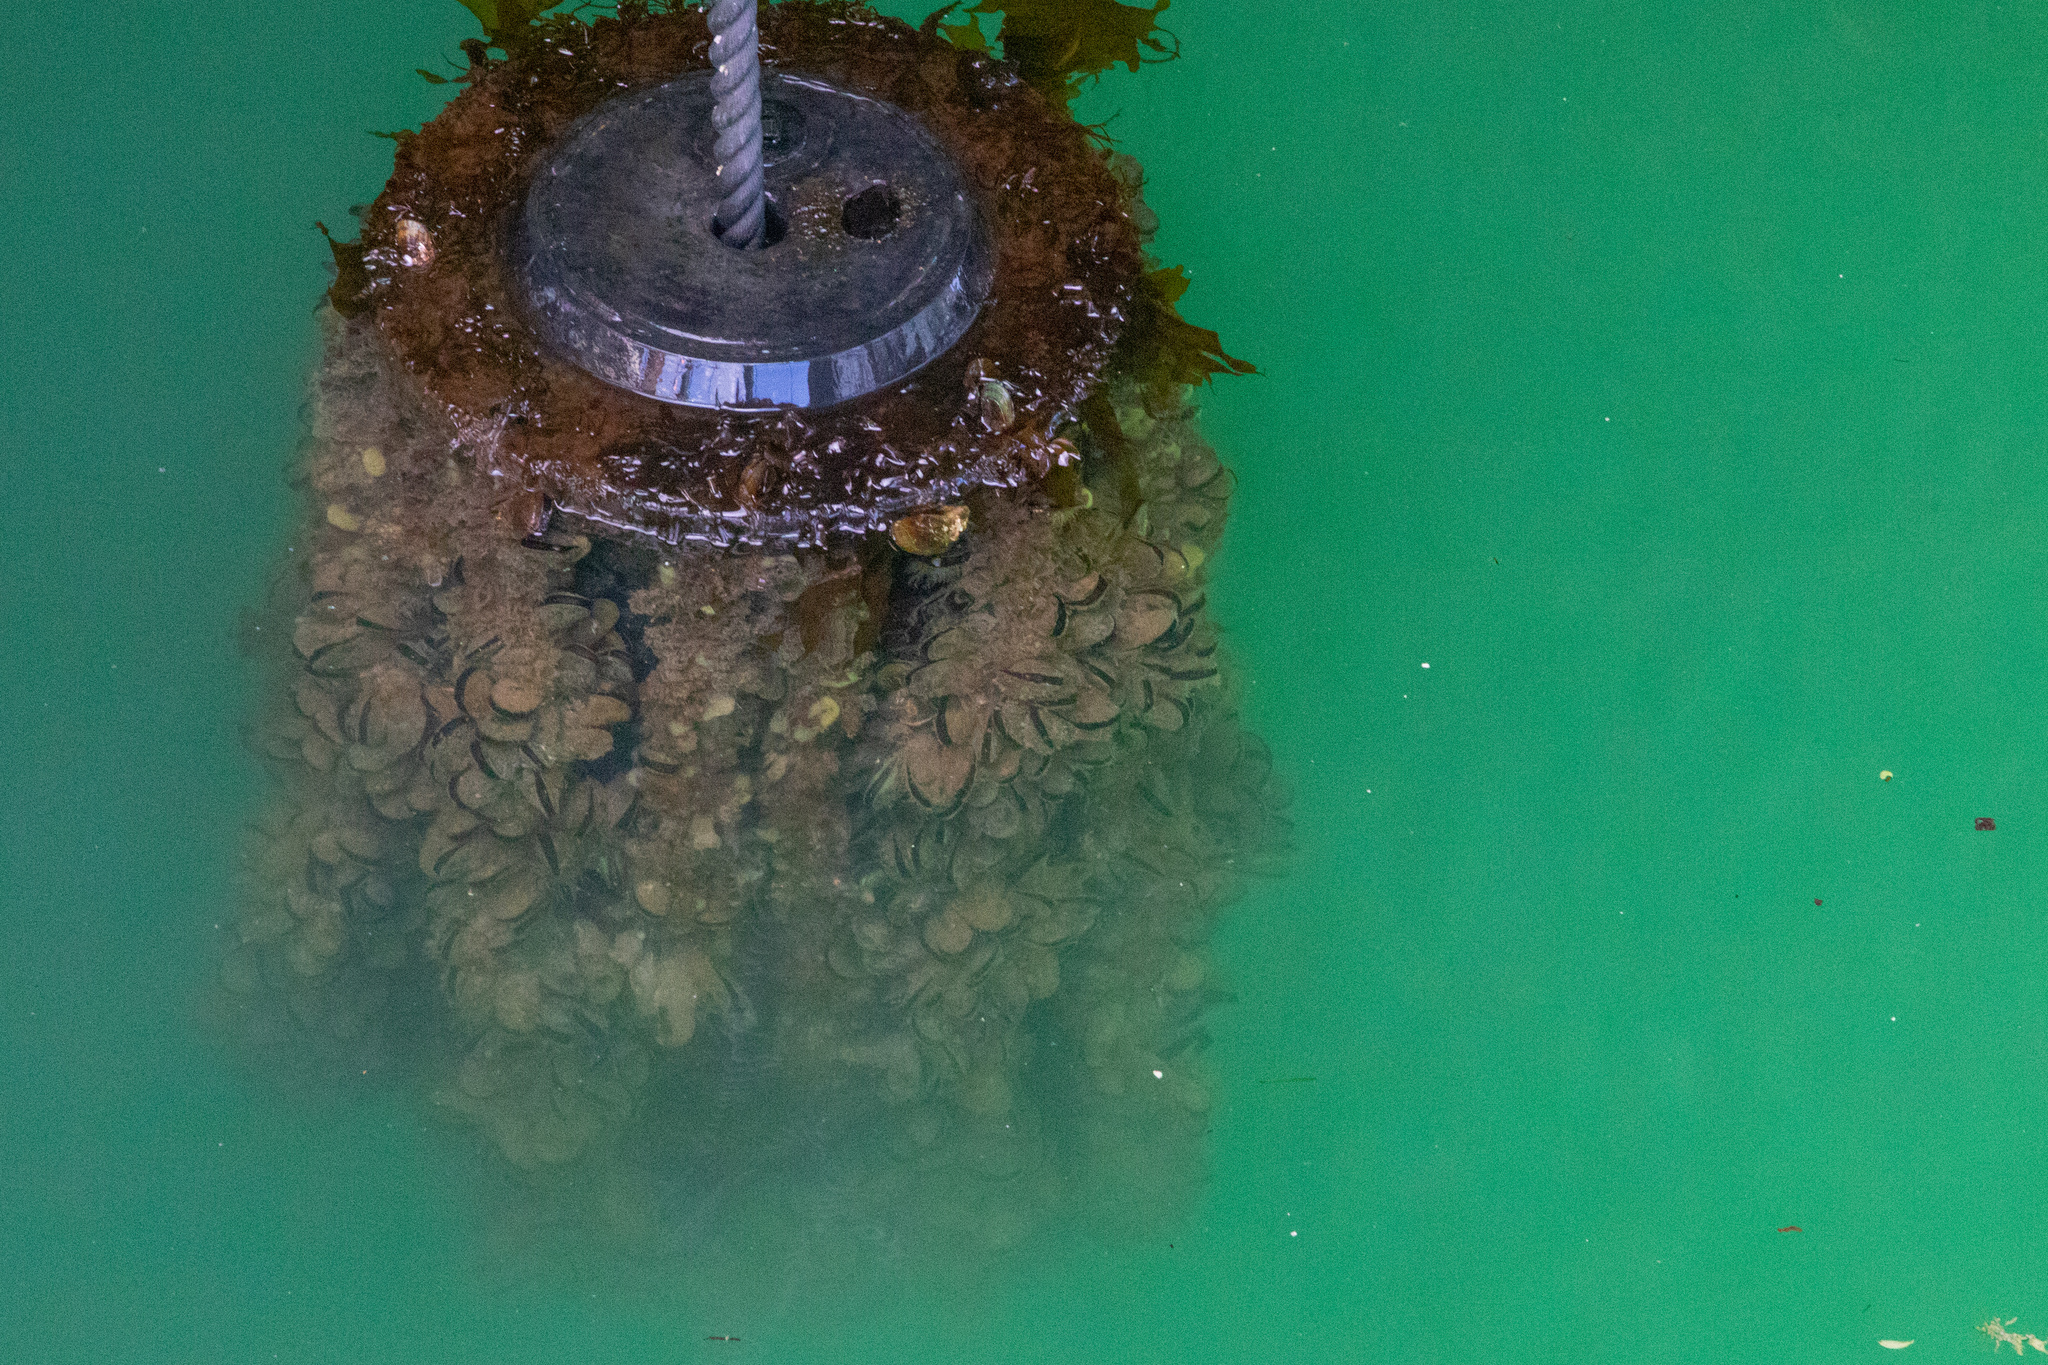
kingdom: Animalia
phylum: Mollusca
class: Bivalvia
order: Mytilida
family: Mytilidae
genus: Perna
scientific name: Perna canaliculus
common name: New zealand greenshelltm
